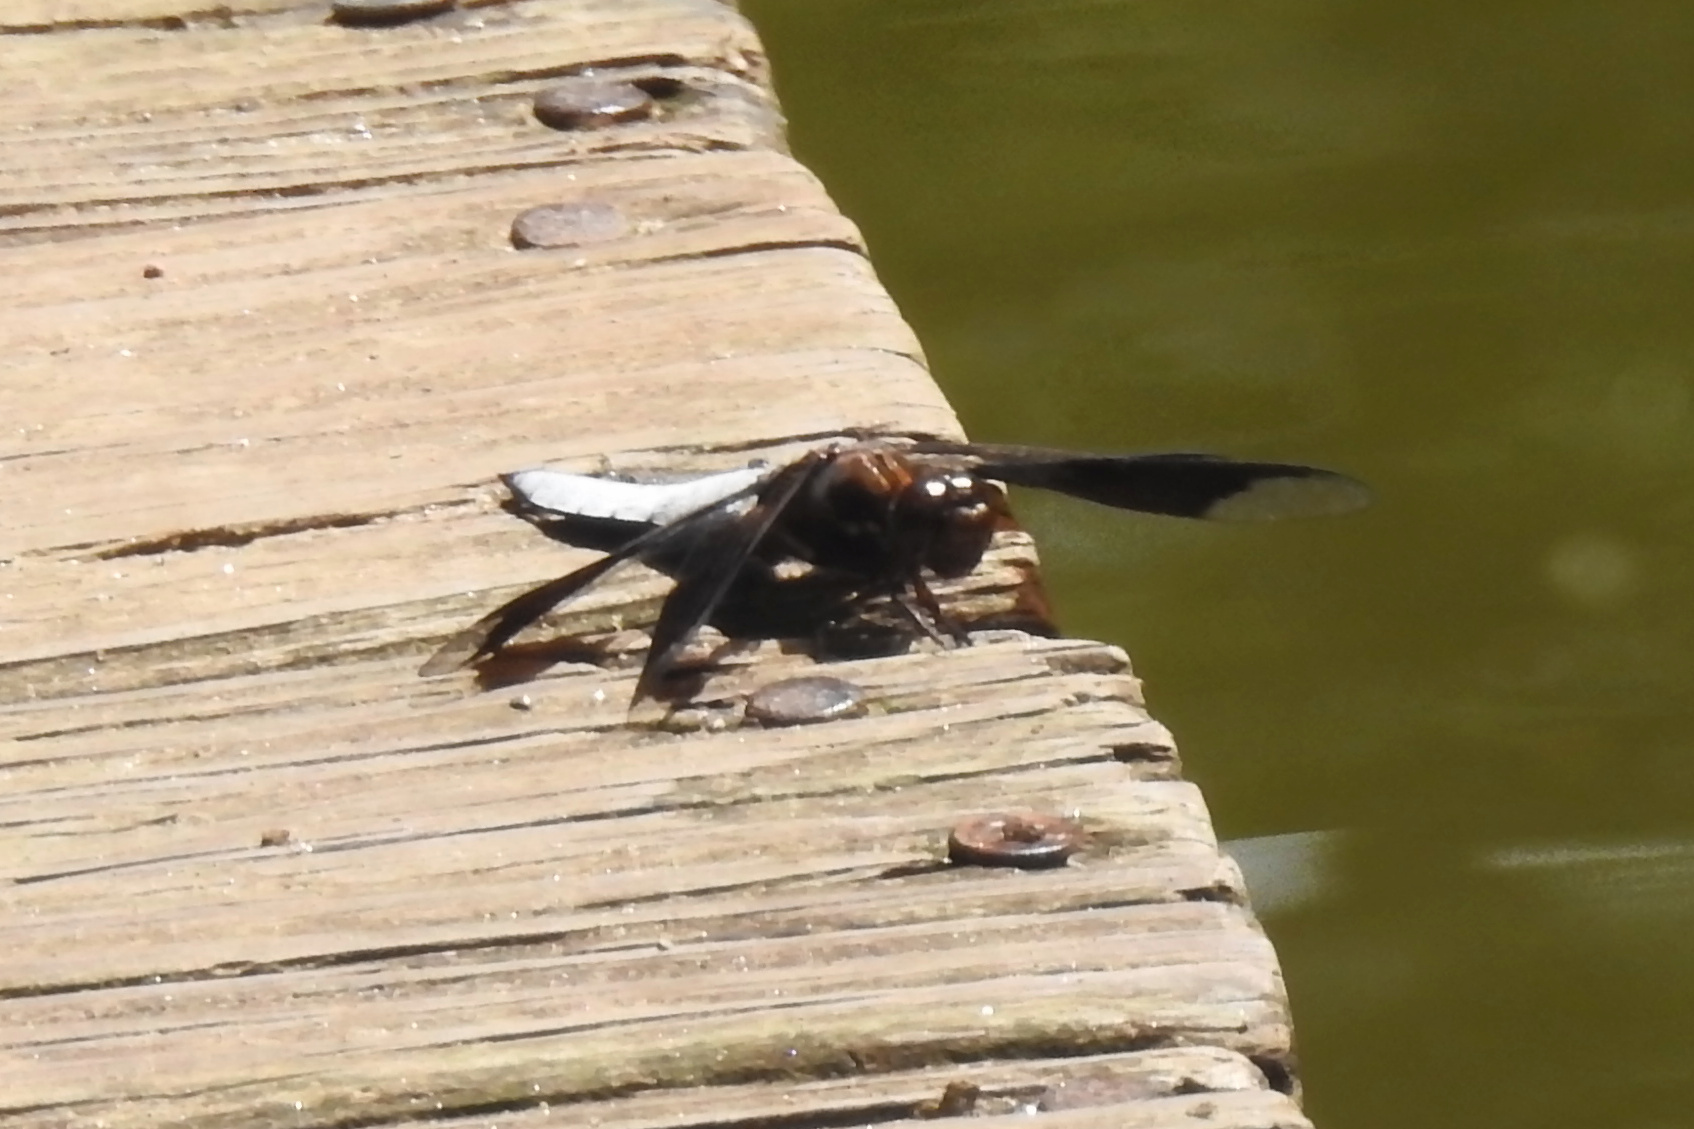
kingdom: Animalia
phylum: Arthropoda
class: Insecta
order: Odonata
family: Libellulidae
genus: Plathemis
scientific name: Plathemis lydia
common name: Common whitetail
